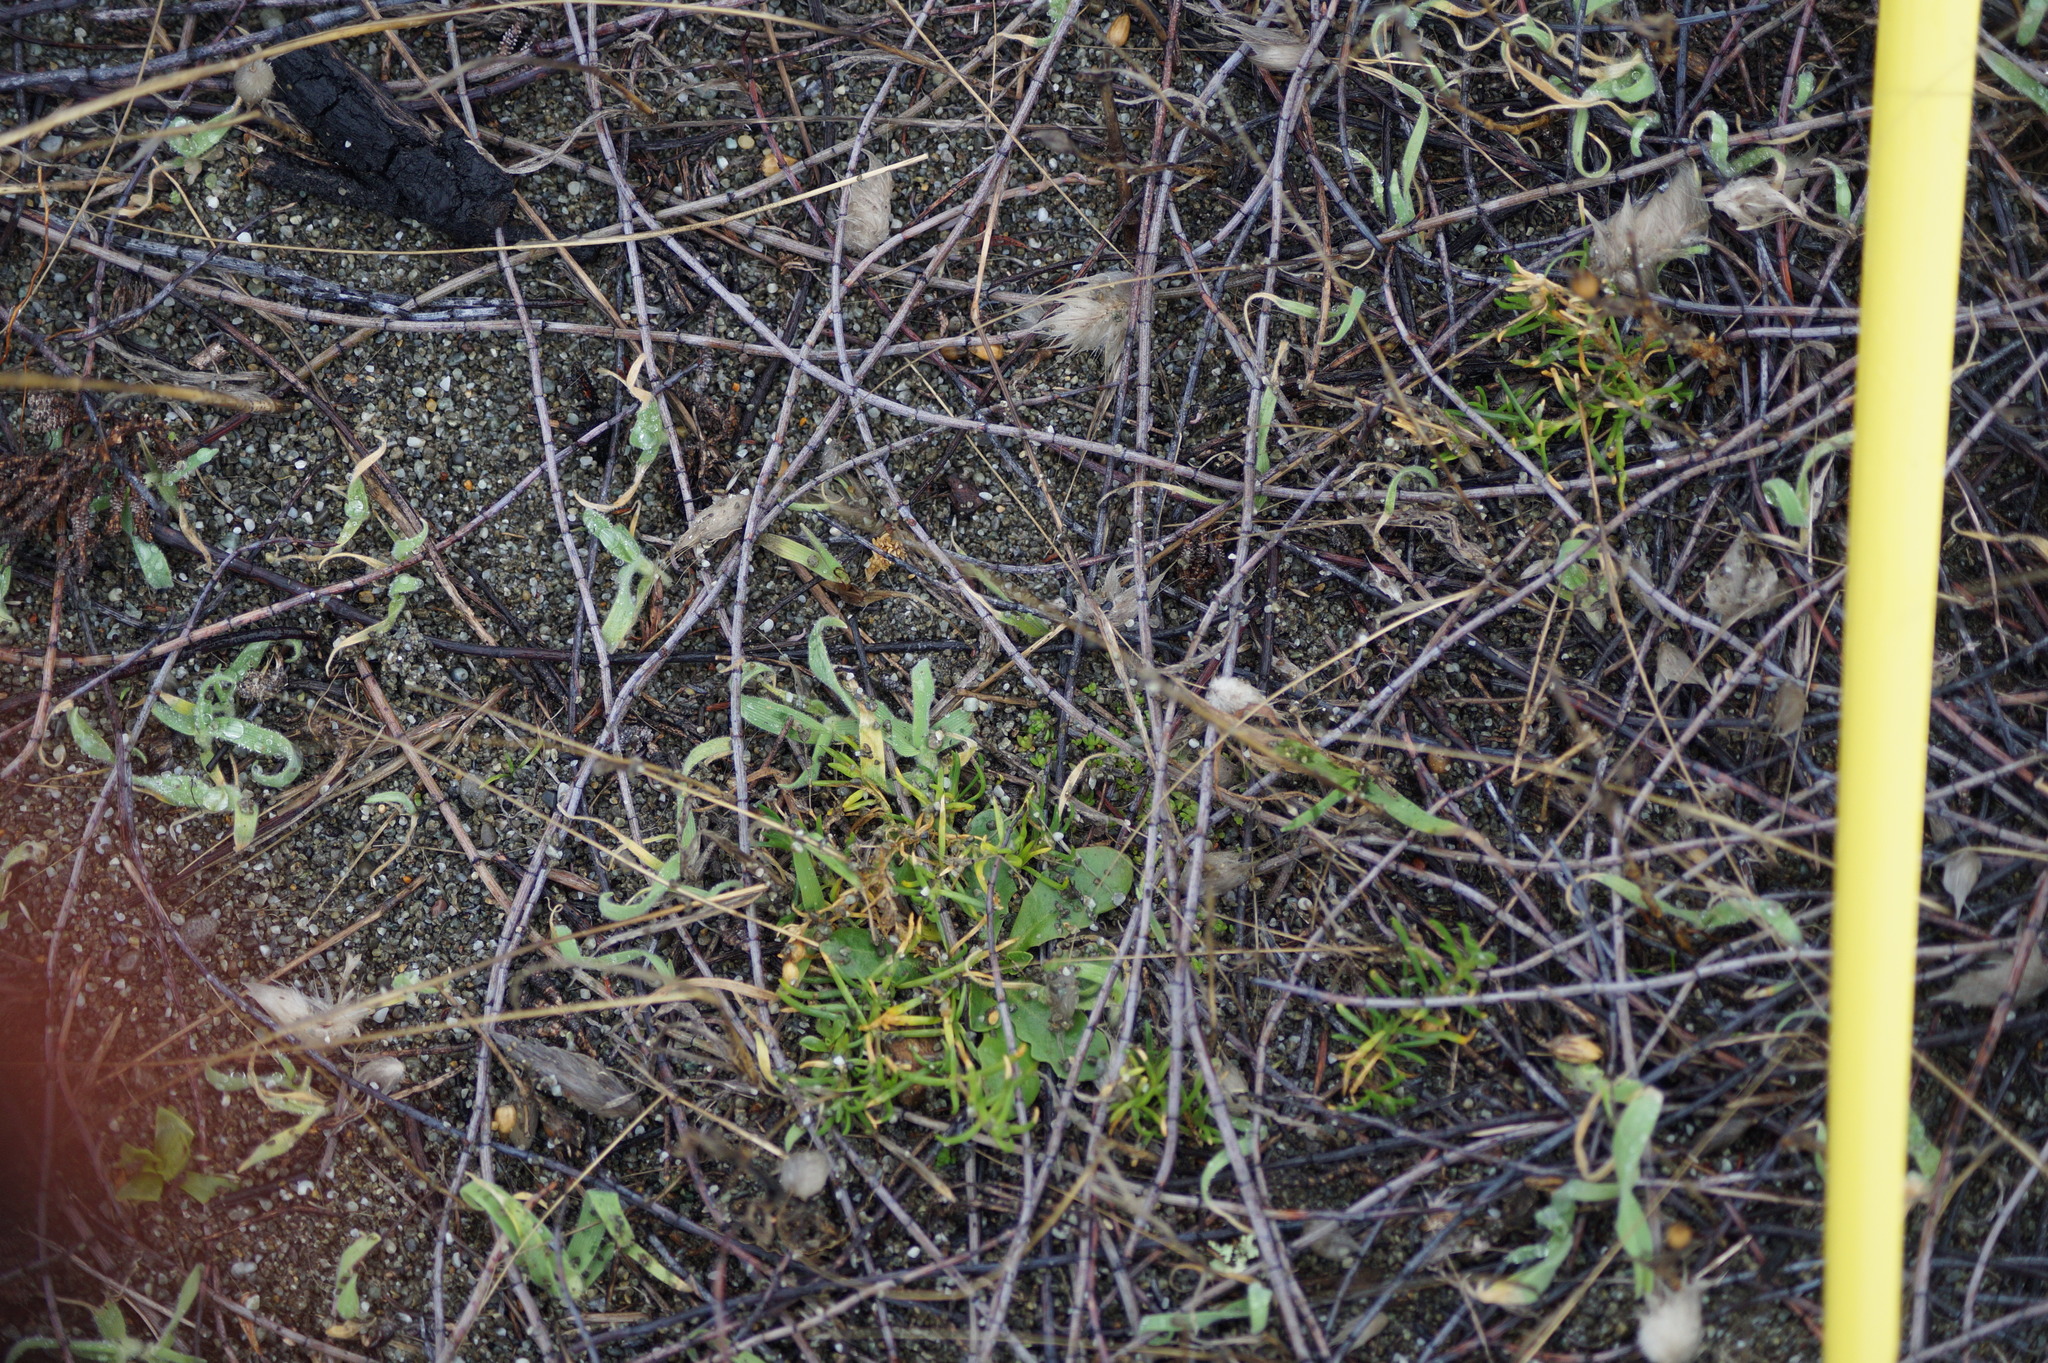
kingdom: Plantae
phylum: Tracheophyta
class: Magnoliopsida
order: Caryophyllales
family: Caryophyllaceae
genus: Spergularia
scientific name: Spergularia rubra
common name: Red sand-spurrey
